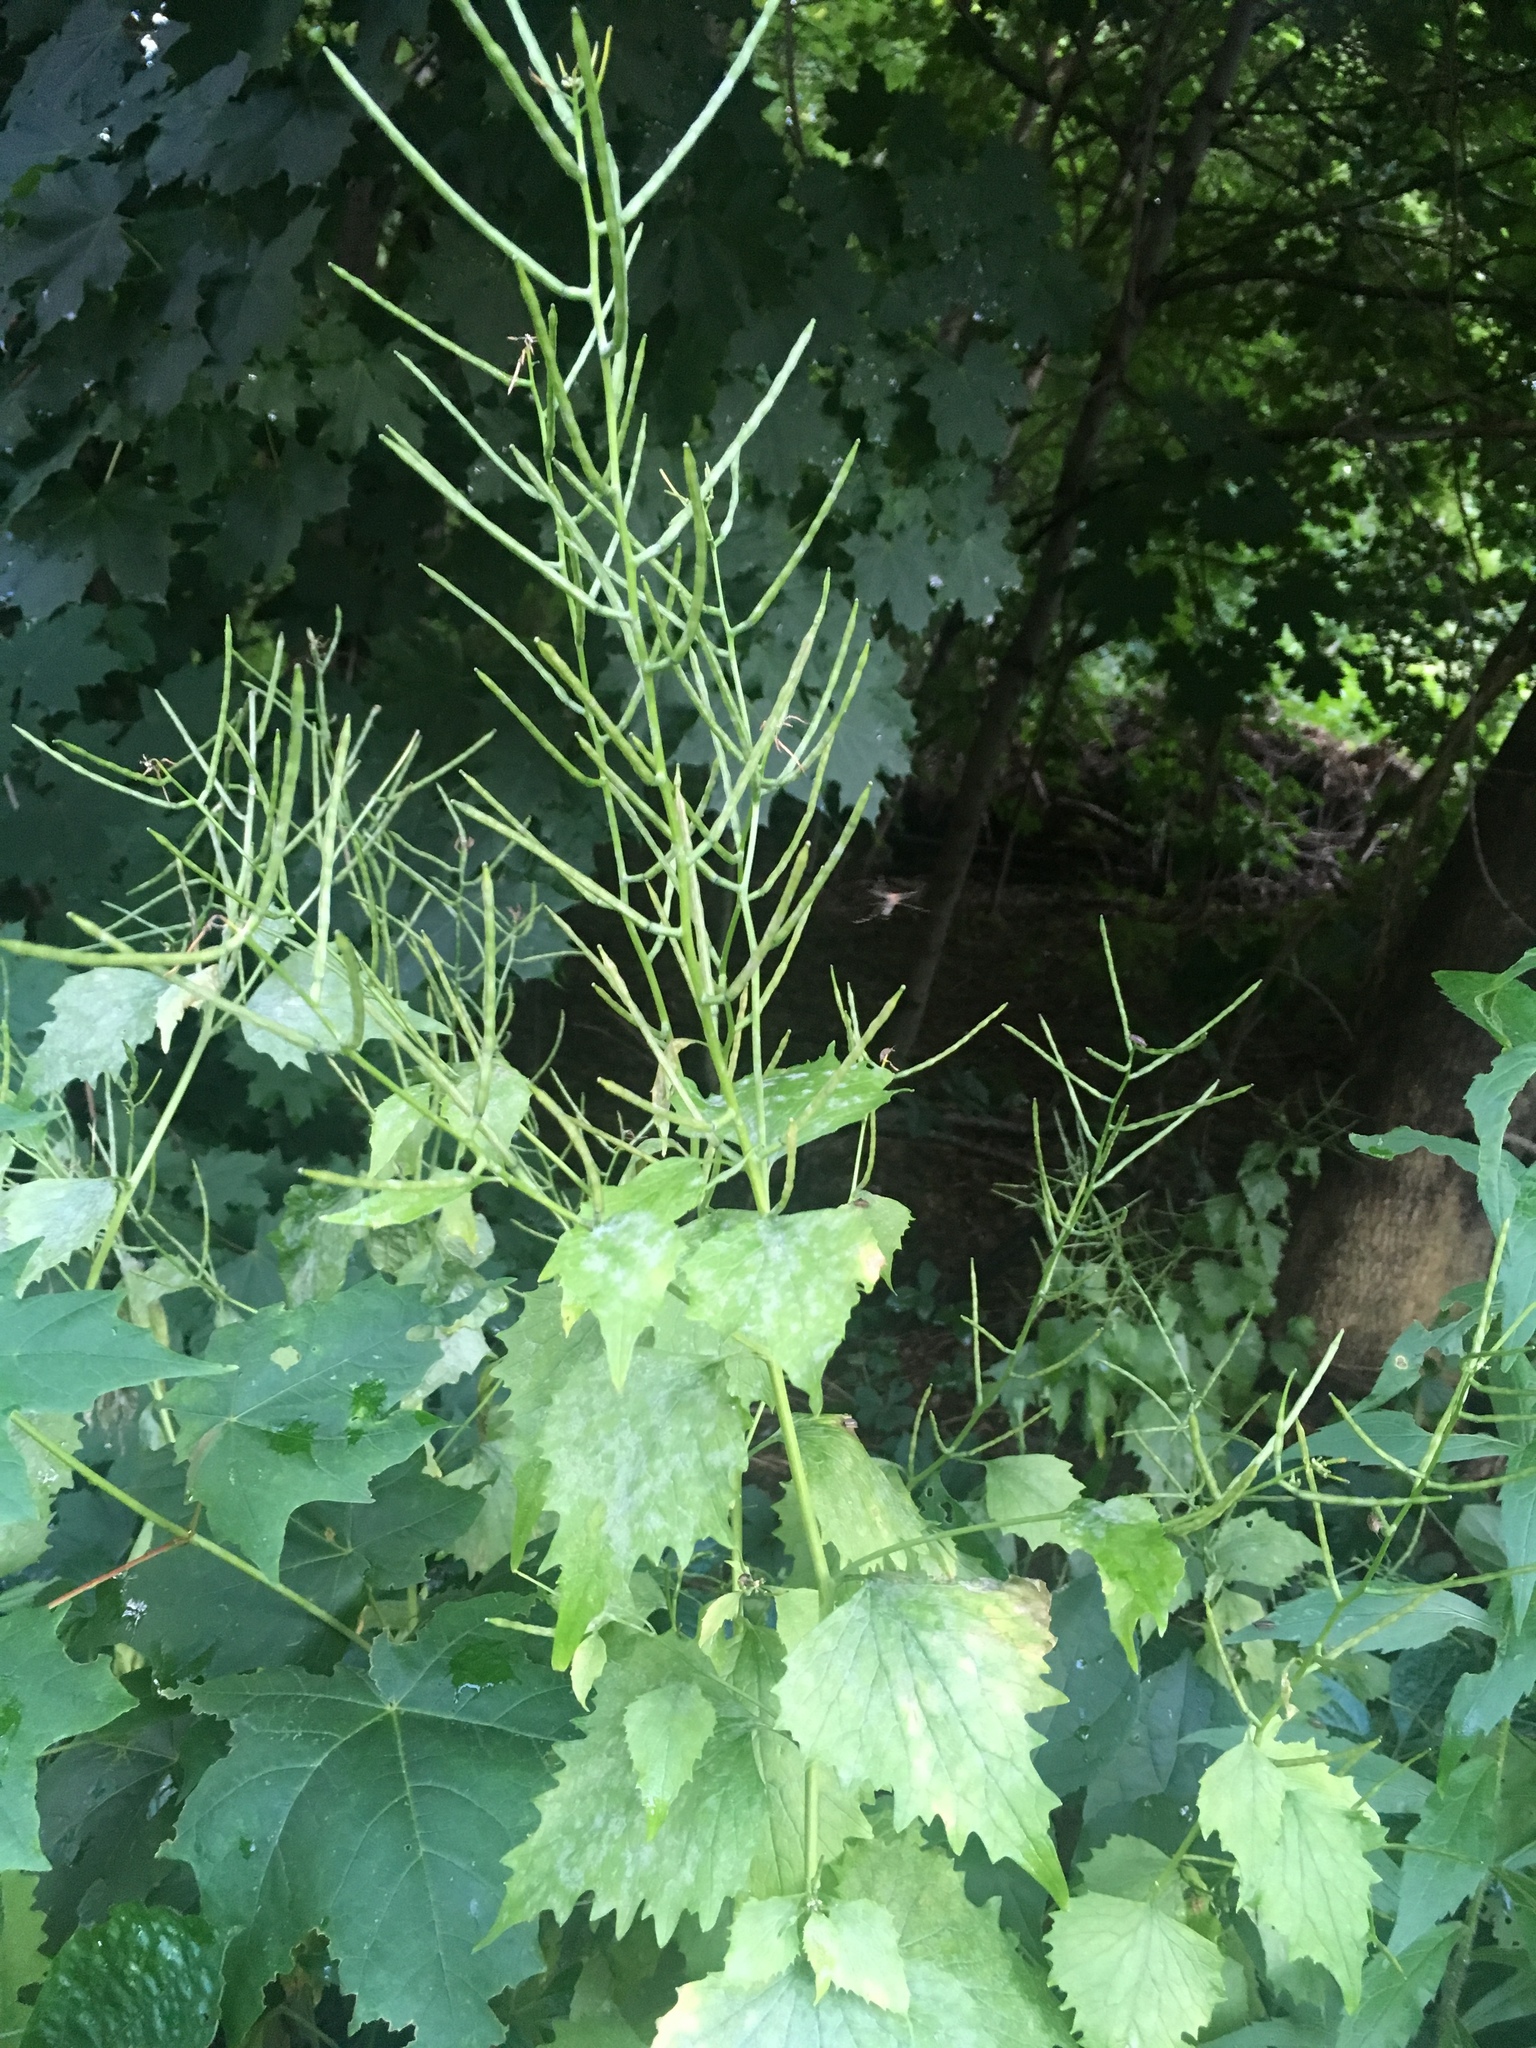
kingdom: Plantae
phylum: Tracheophyta
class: Magnoliopsida
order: Brassicales
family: Brassicaceae
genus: Alliaria
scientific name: Alliaria petiolata
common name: Garlic mustard
